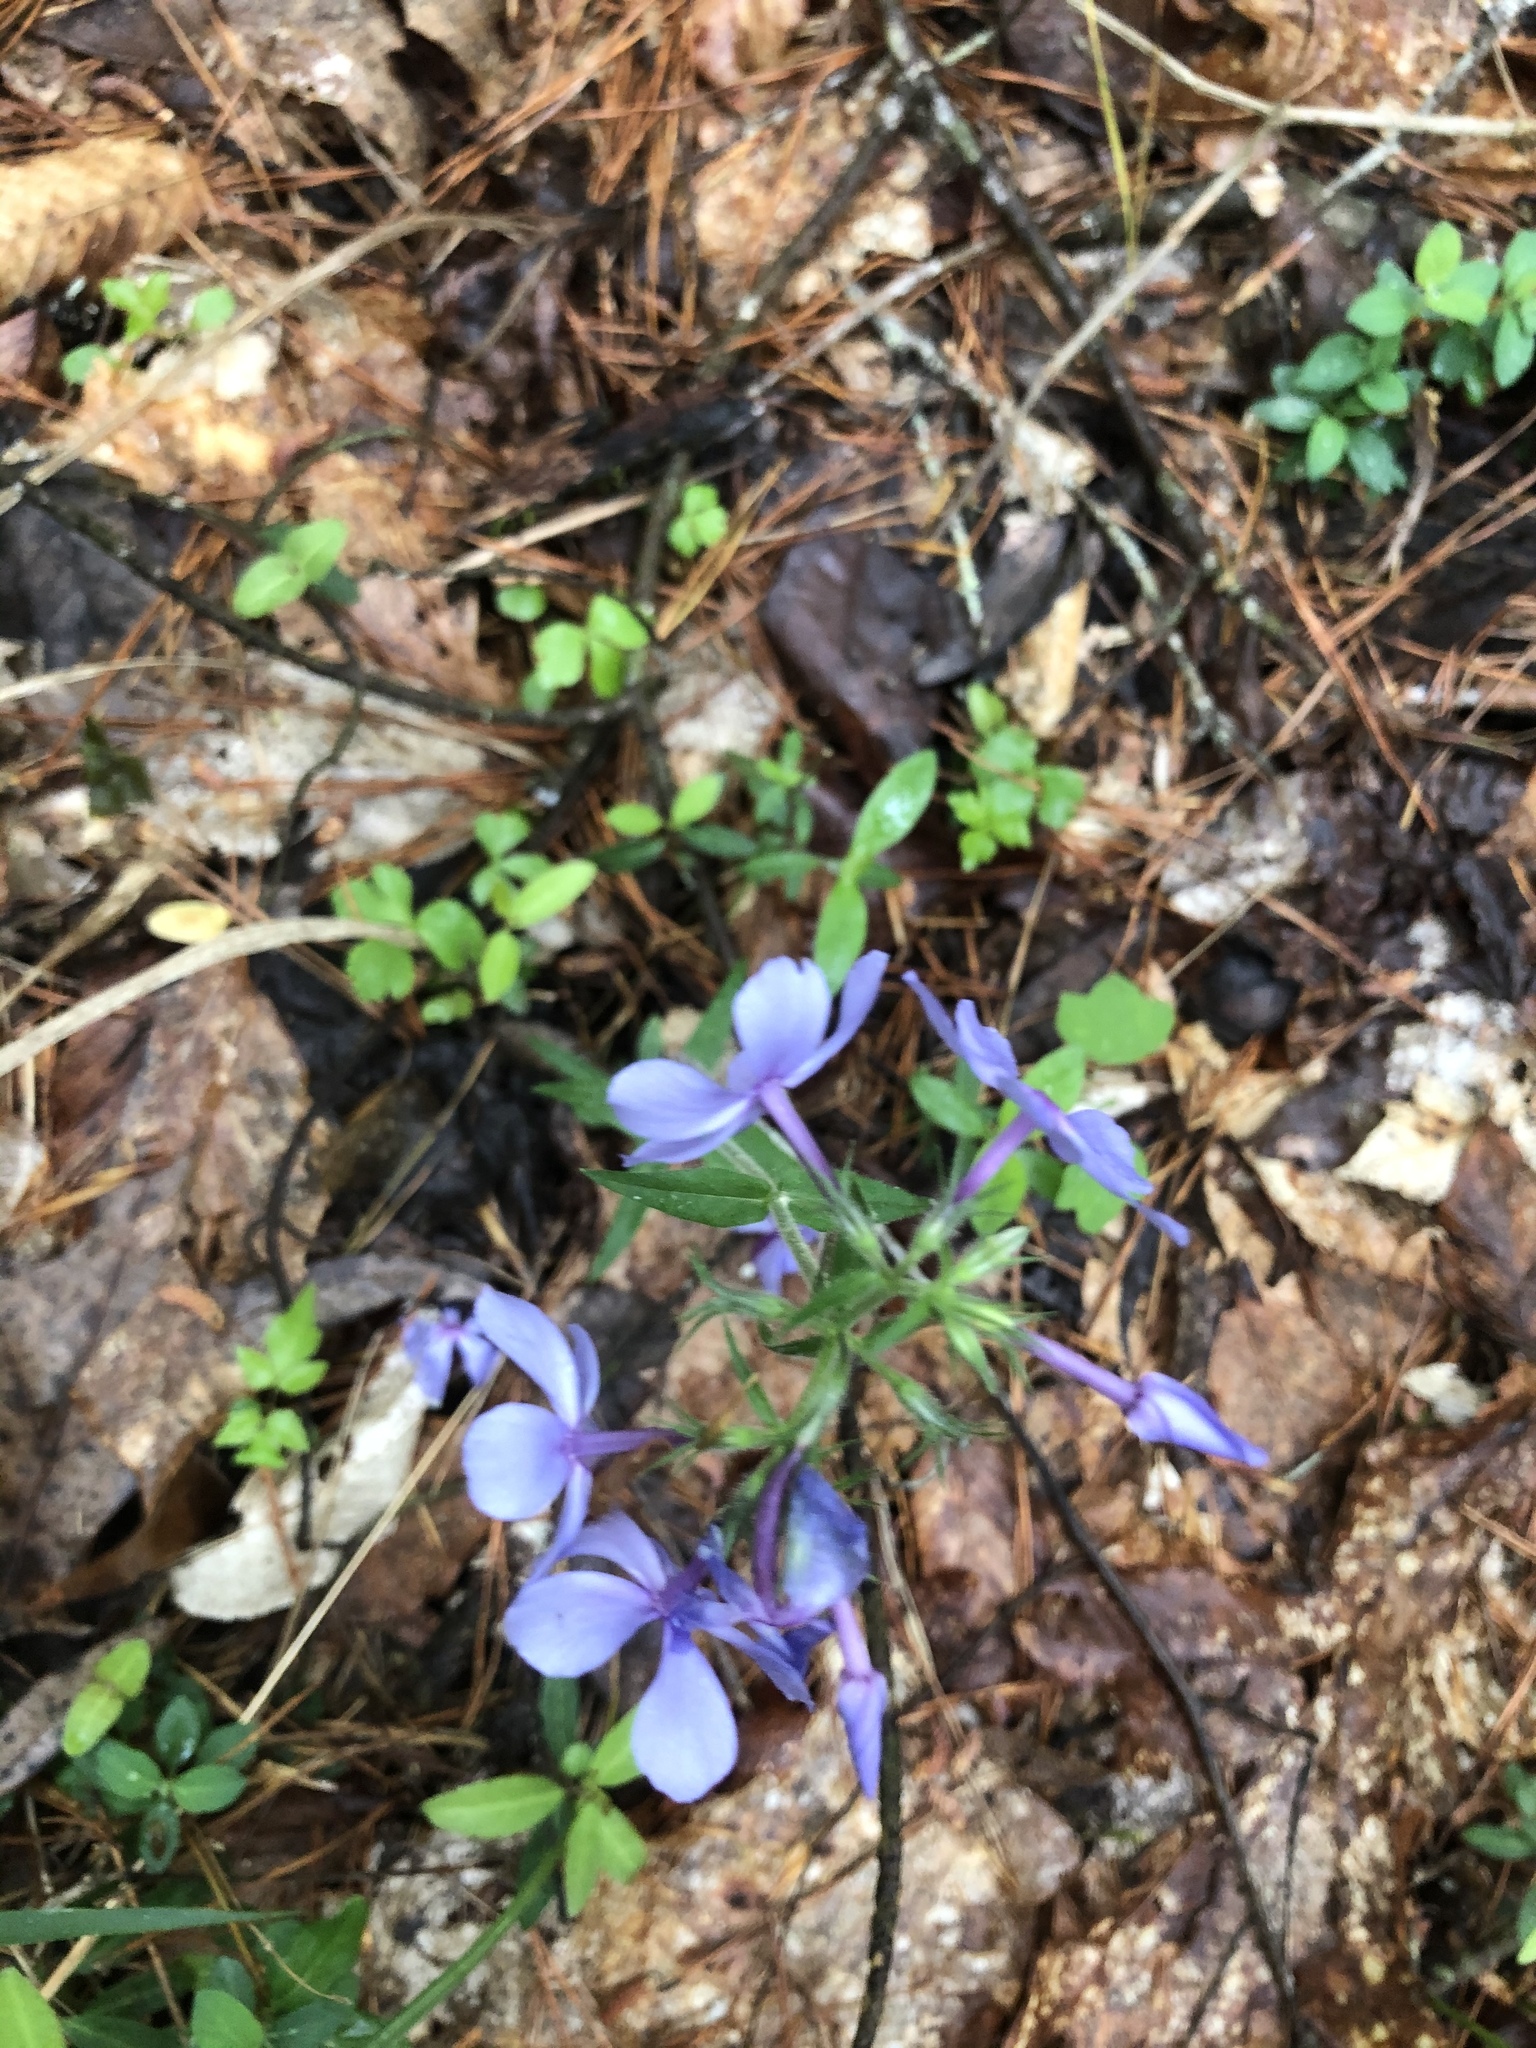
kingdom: Plantae
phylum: Tracheophyta
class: Magnoliopsida
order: Ericales
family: Polemoniaceae
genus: Phlox
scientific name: Phlox divaricata
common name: Blue phlox
